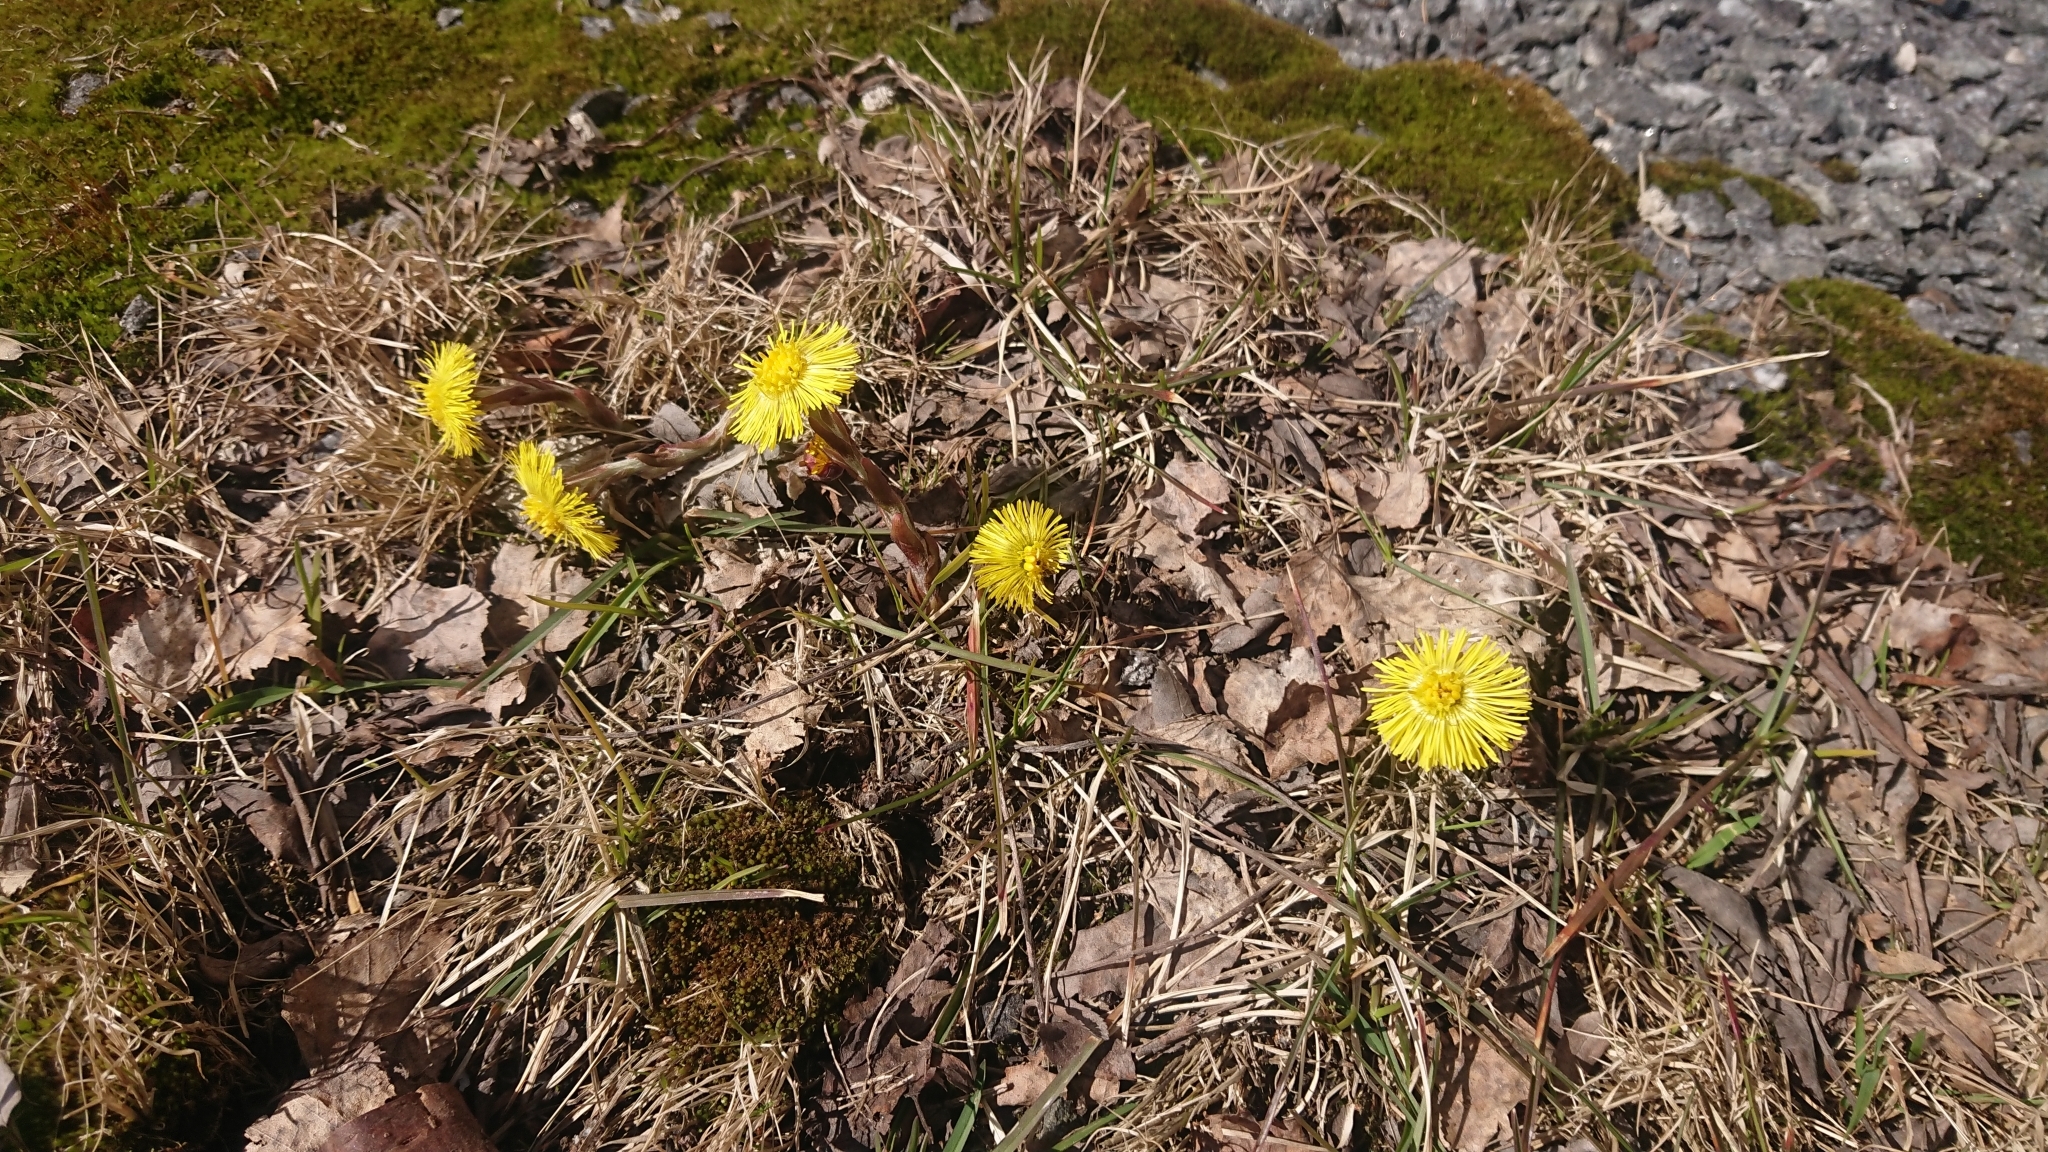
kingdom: Plantae
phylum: Tracheophyta
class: Magnoliopsida
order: Asterales
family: Asteraceae
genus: Tussilago
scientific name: Tussilago farfara
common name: Coltsfoot
